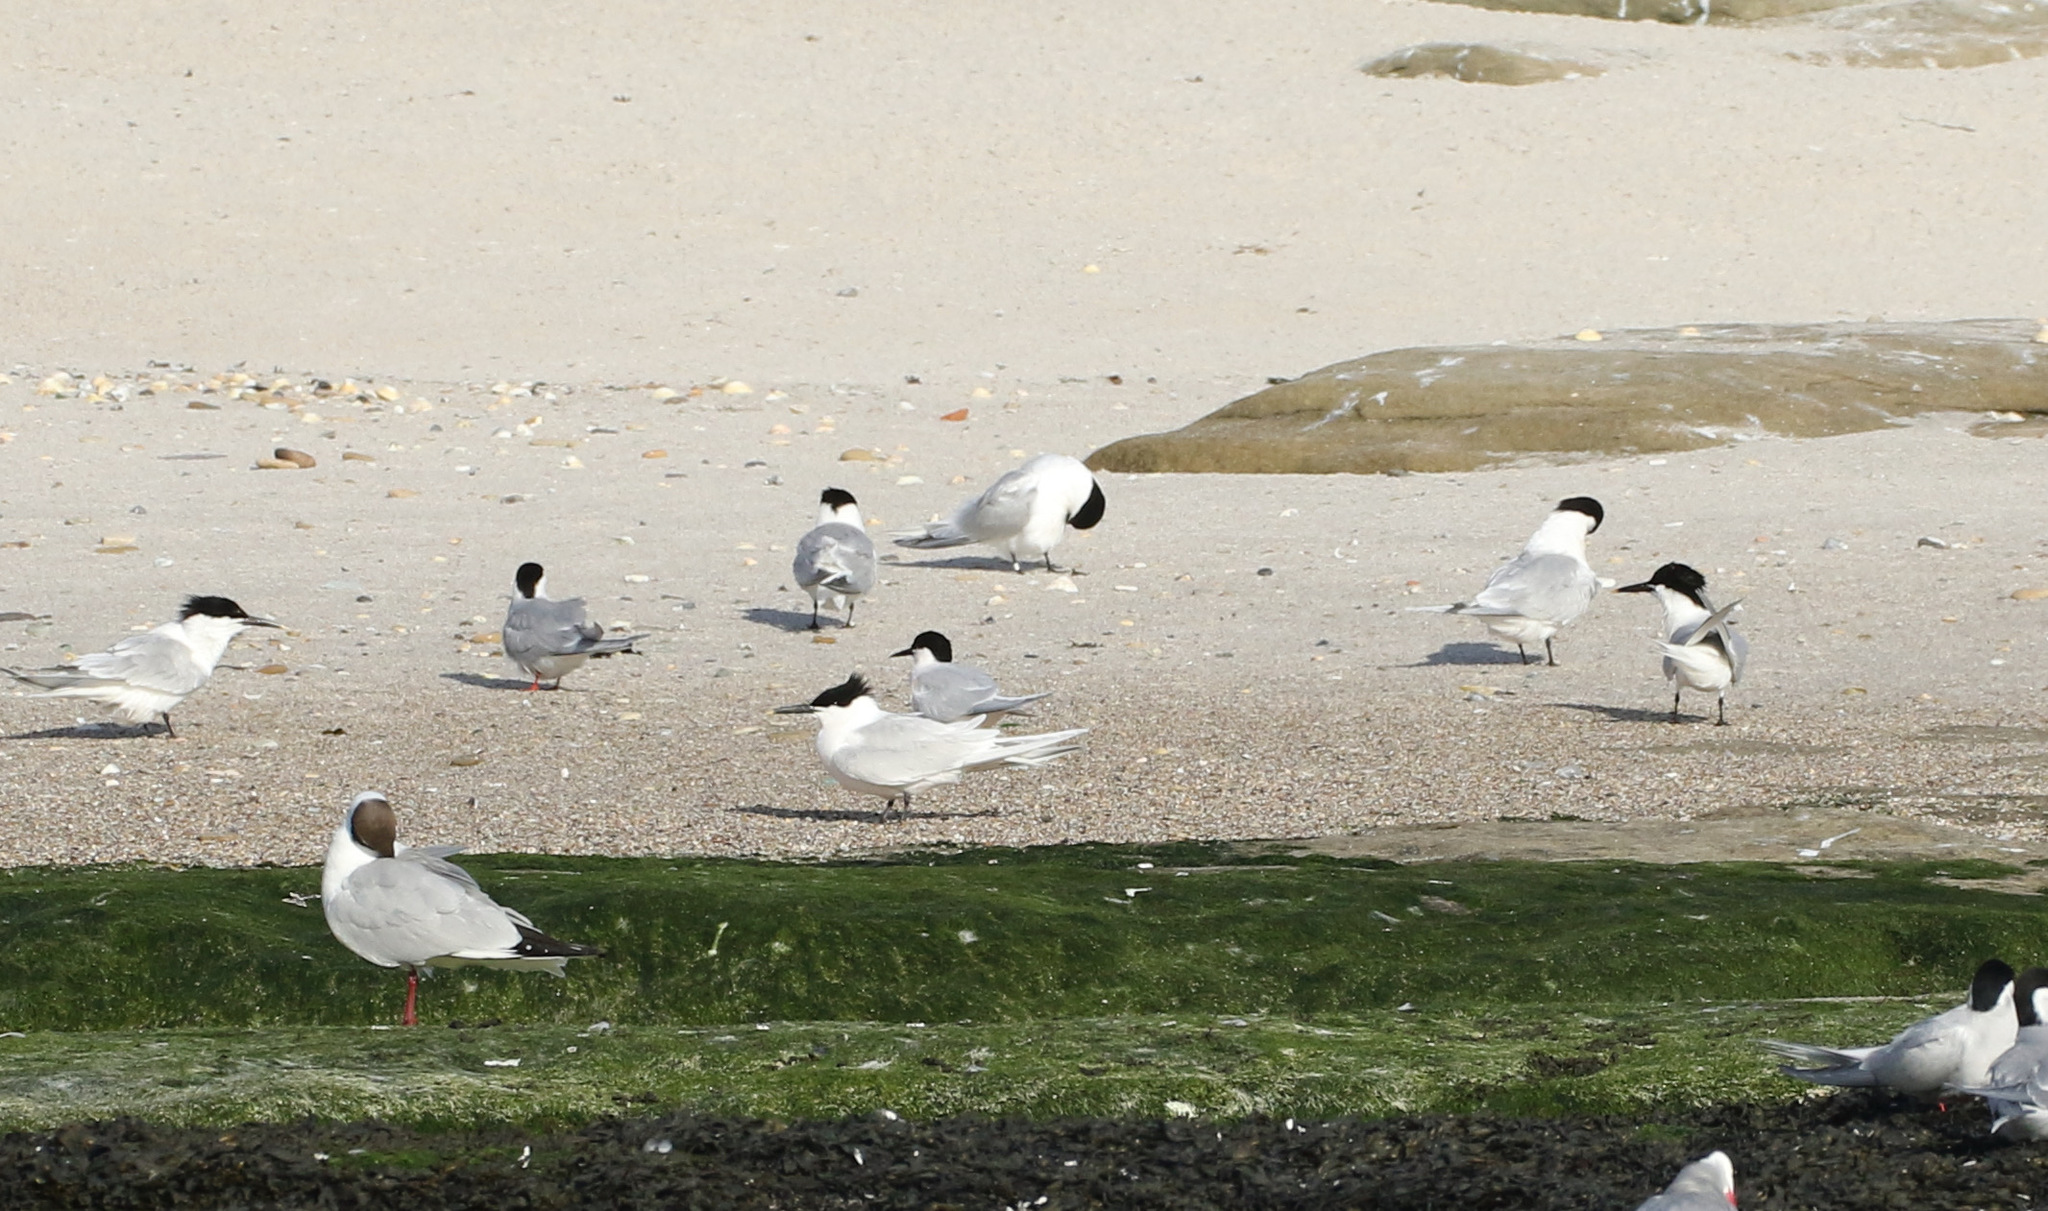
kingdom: Animalia
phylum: Chordata
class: Aves
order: Charadriiformes
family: Laridae
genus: Thalasseus
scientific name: Thalasseus sandvicensis
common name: Sandwich tern
